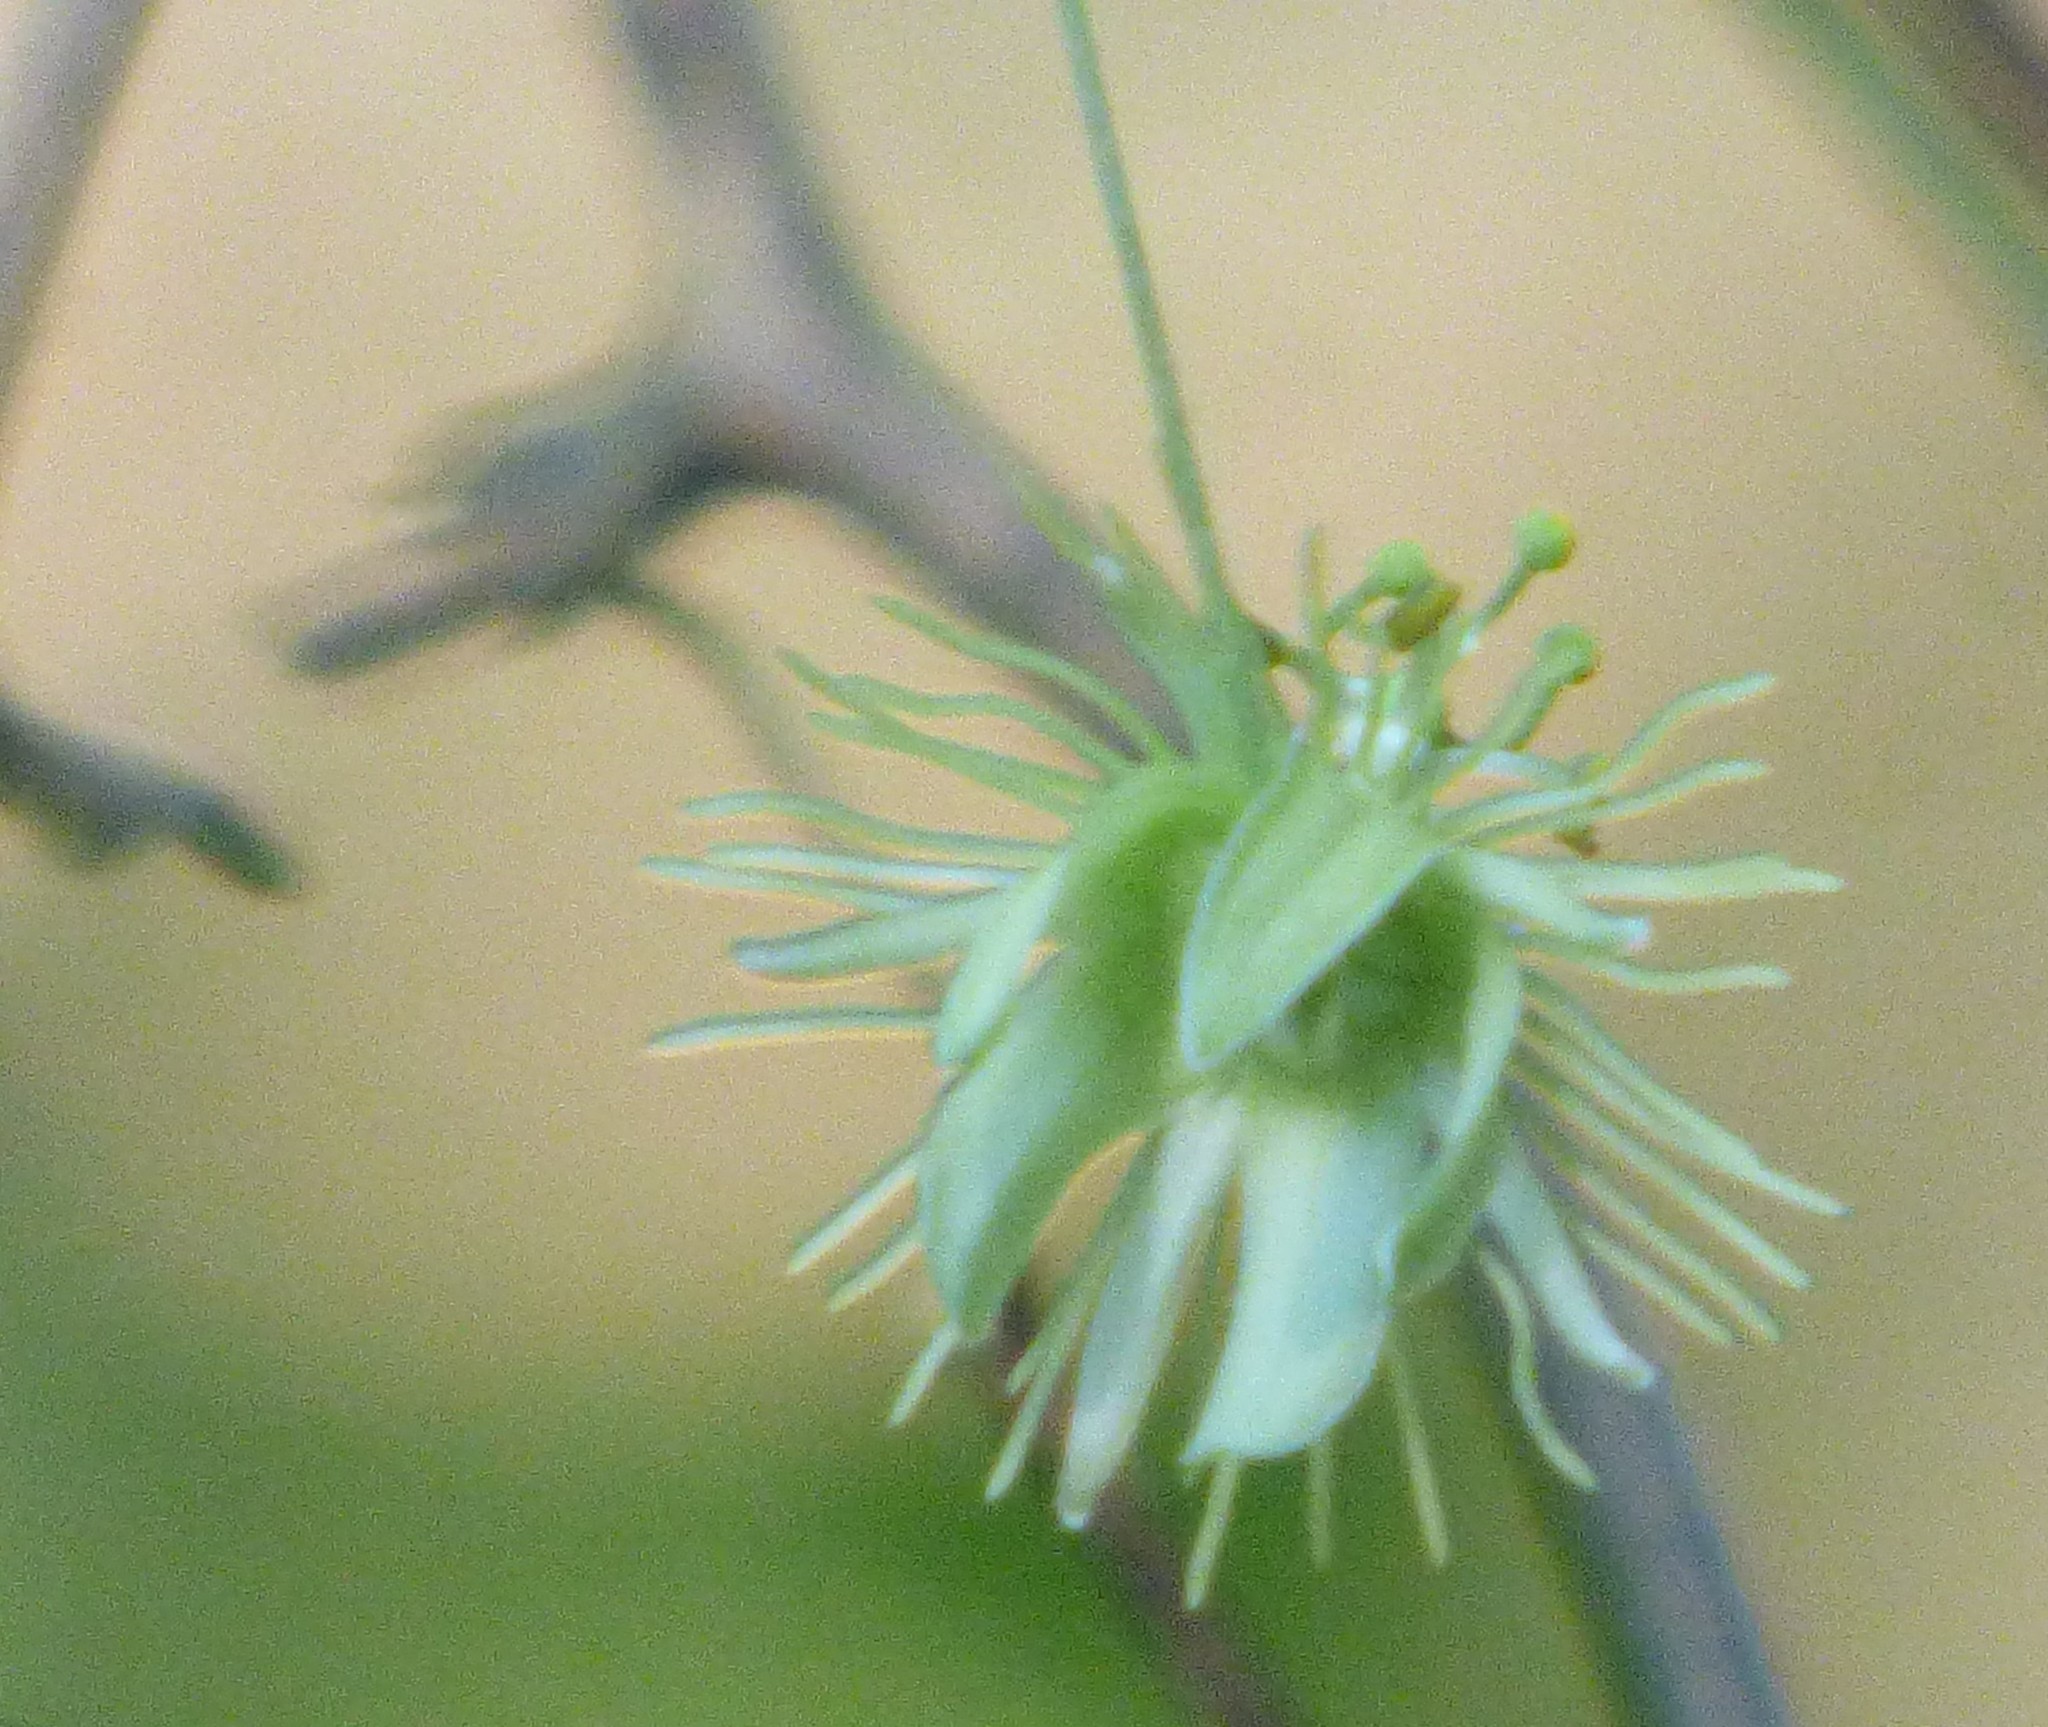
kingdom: Plantae
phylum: Tracheophyta
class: Magnoliopsida
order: Malpighiales
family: Passifloraceae
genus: Passiflora
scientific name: Passiflora lutea
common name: Yellow passionflower
